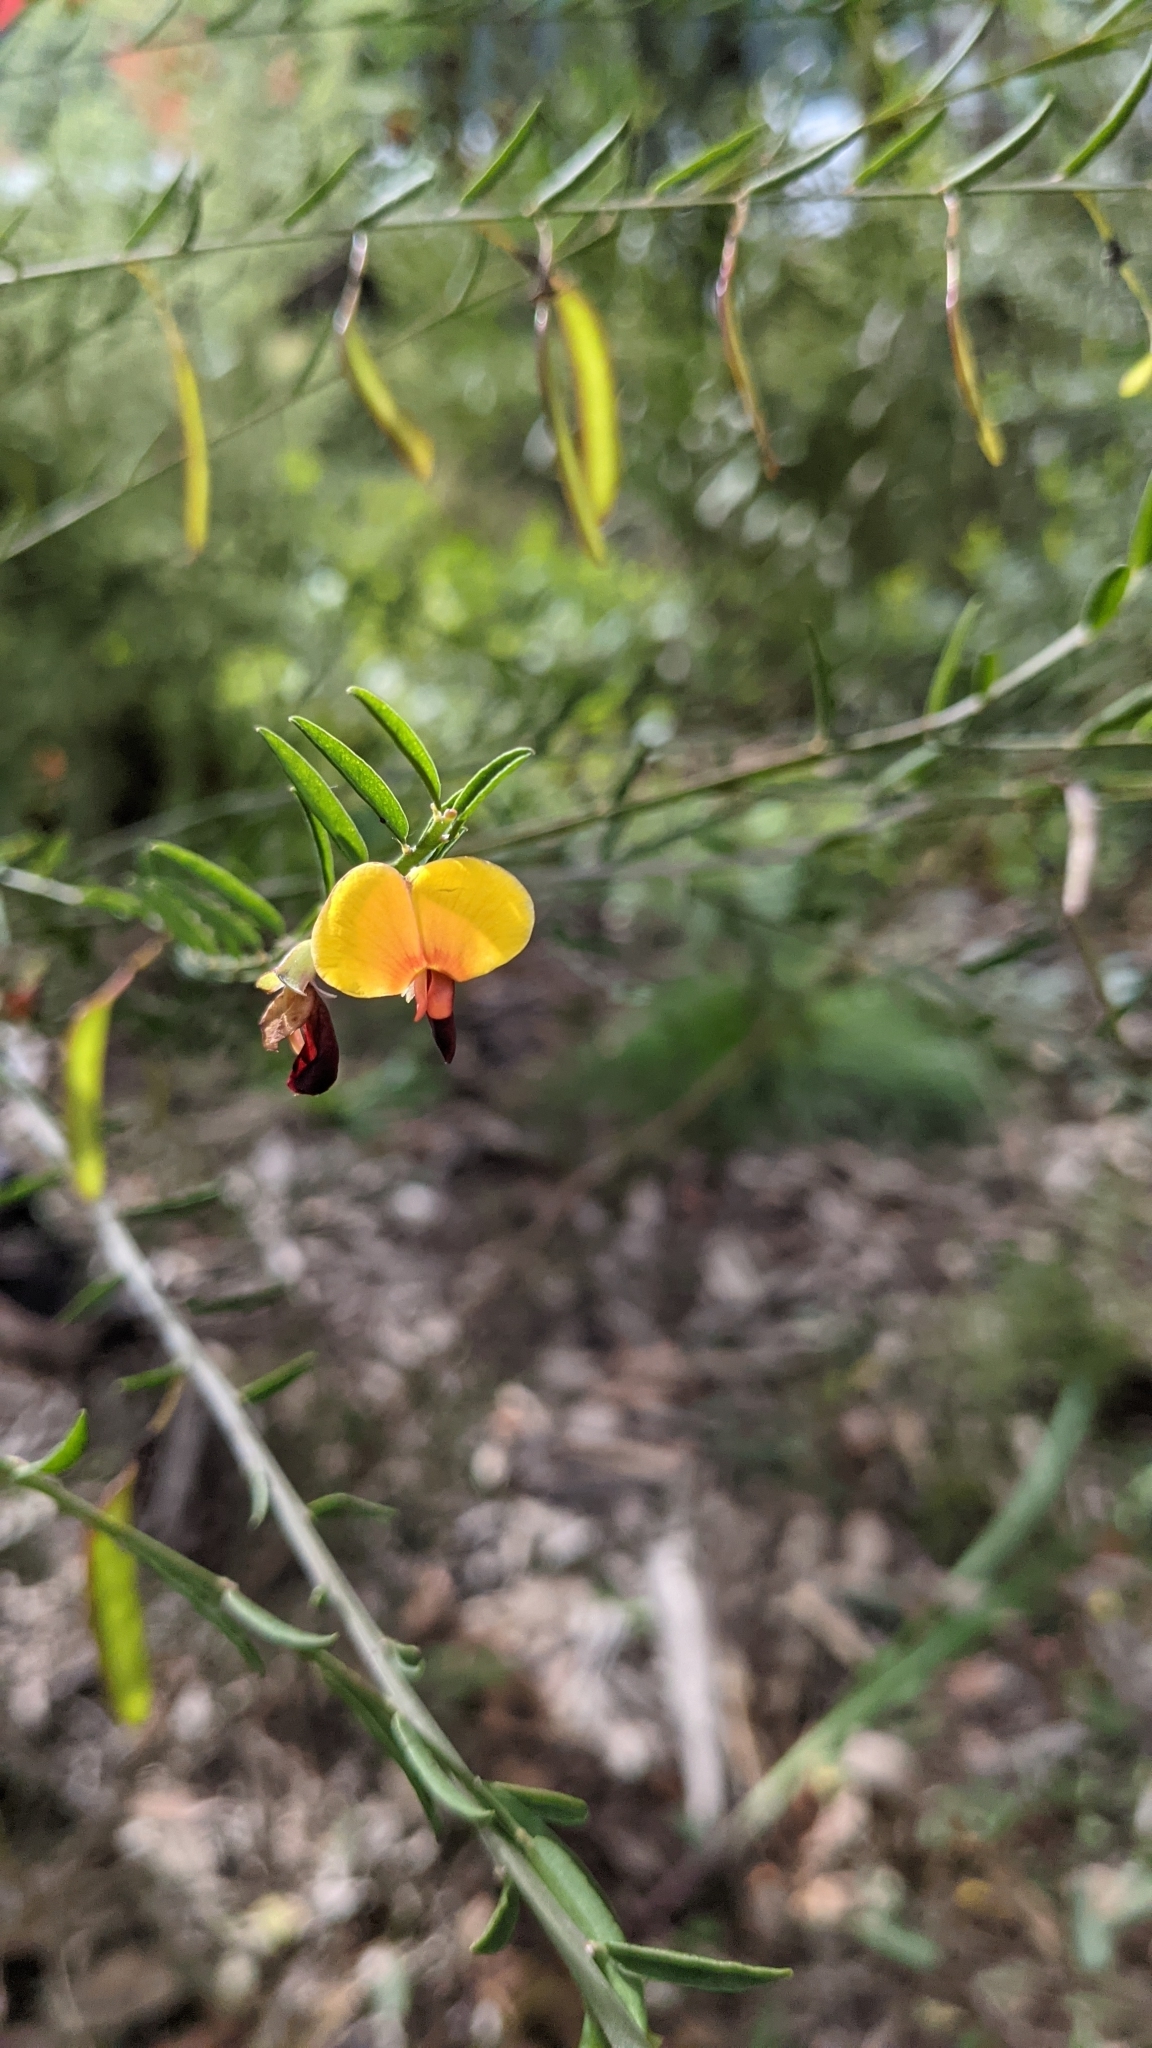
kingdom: Plantae
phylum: Tracheophyta
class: Magnoliopsida
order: Fabales
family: Fabaceae
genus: Bossiaea
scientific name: Bossiaea heterophylla
